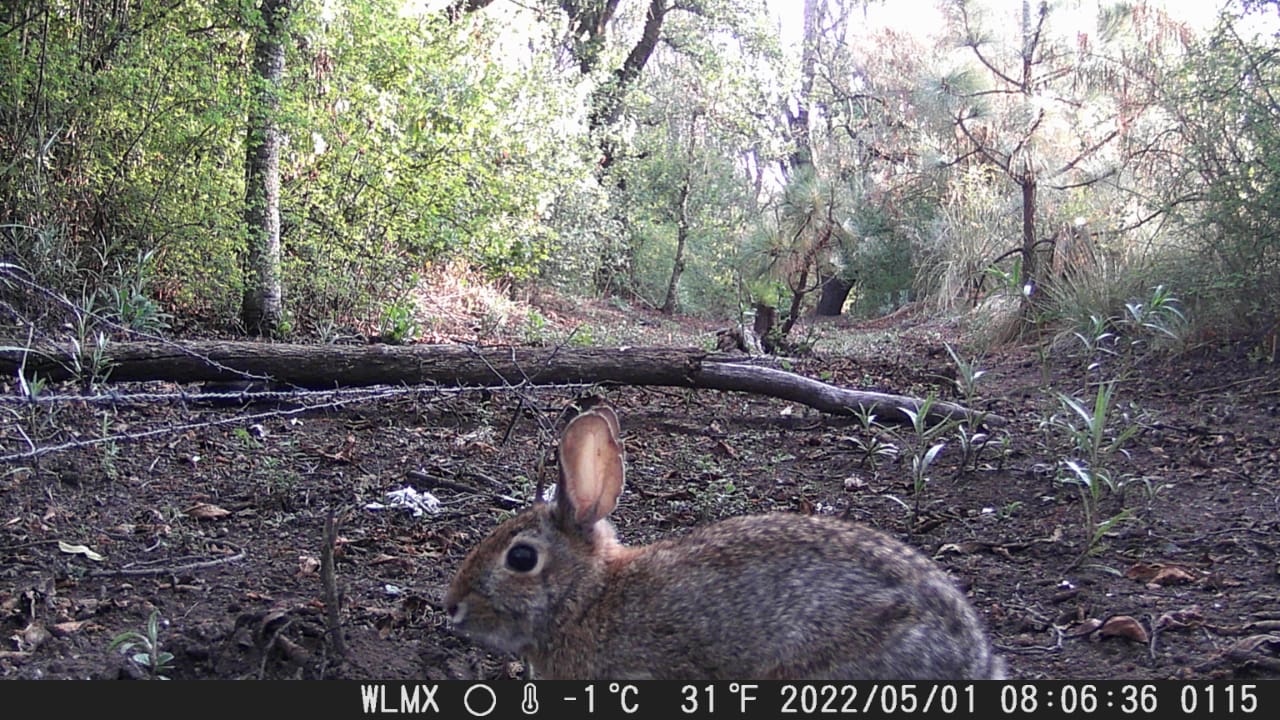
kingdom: Animalia
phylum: Chordata
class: Mammalia
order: Lagomorpha
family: Leporidae
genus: Sylvilagus
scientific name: Sylvilagus cunicularius
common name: Mexican cottontail
